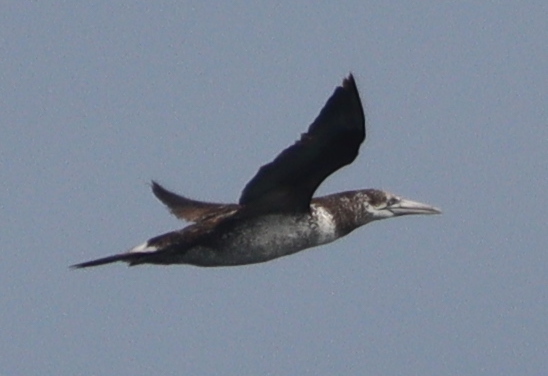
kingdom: Animalia
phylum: Chordata
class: Aves
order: Suliformes
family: Sulidae
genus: Morus
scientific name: Morus bassanus
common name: Northern gannet
